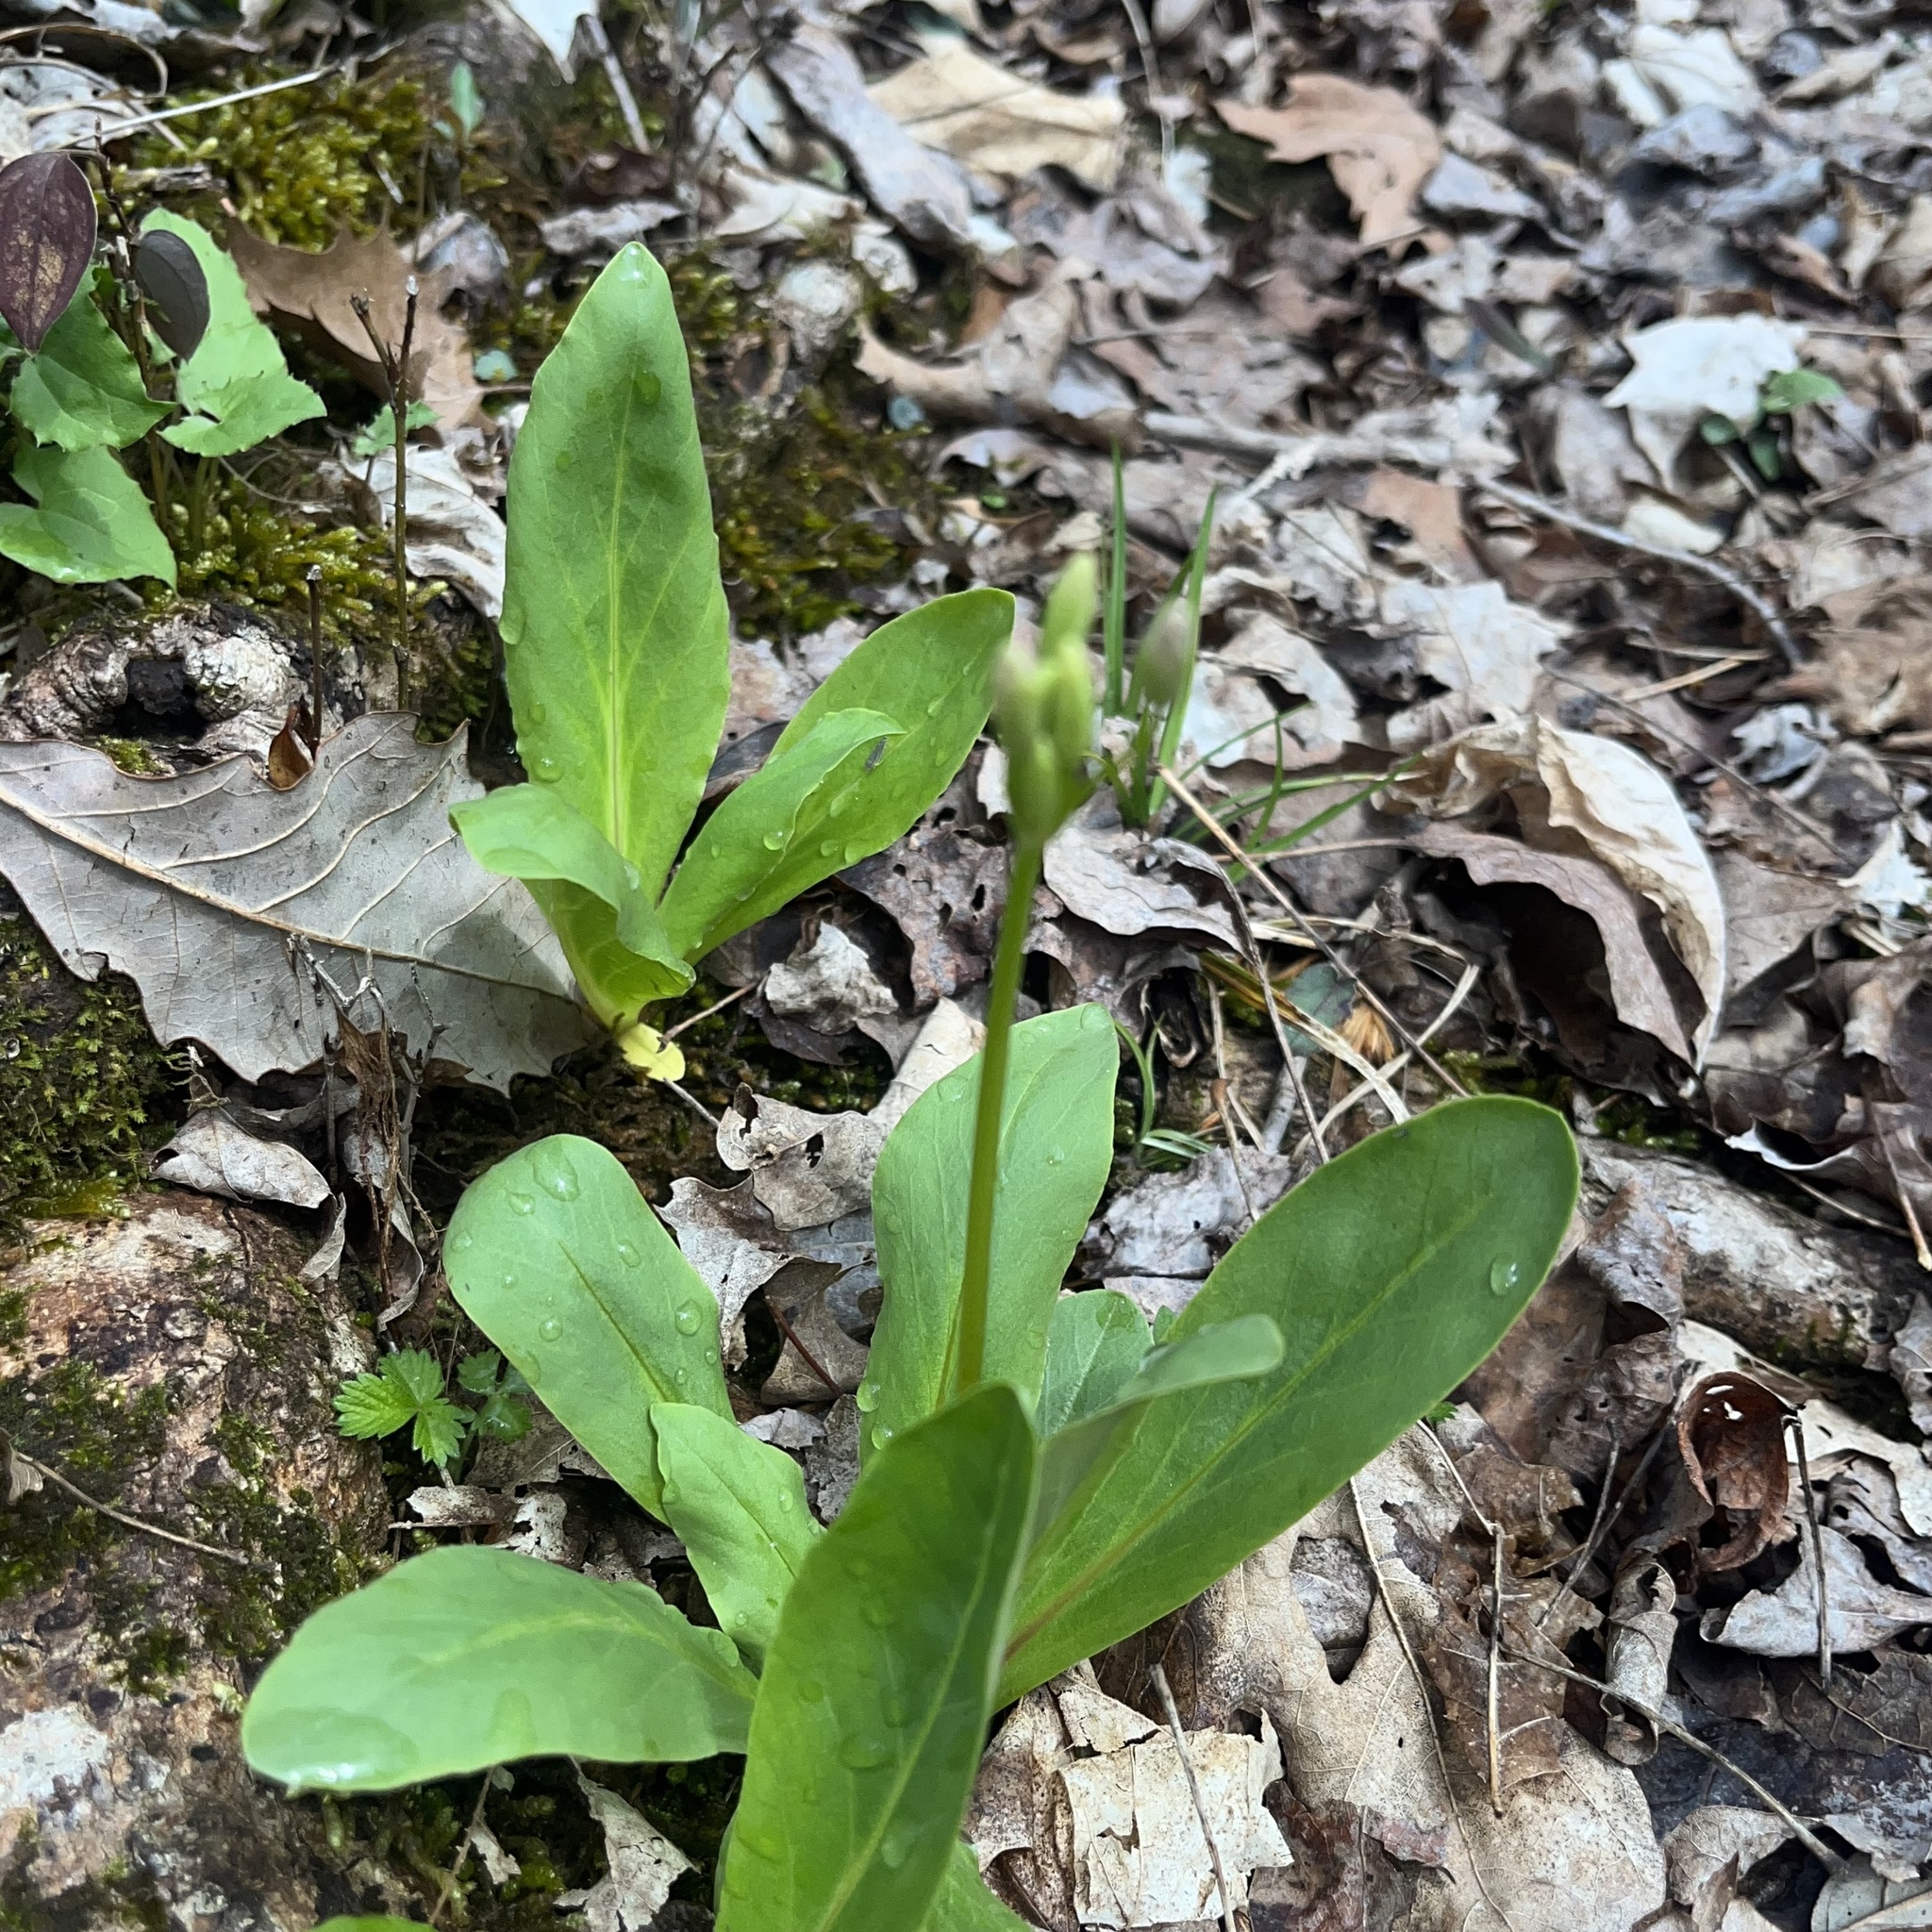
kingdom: Plantae
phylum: Tracheophyta
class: Magnoliopsida
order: Ericales
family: Primulaceae
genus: Dodecatheon
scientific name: Dodecatheon meadia
